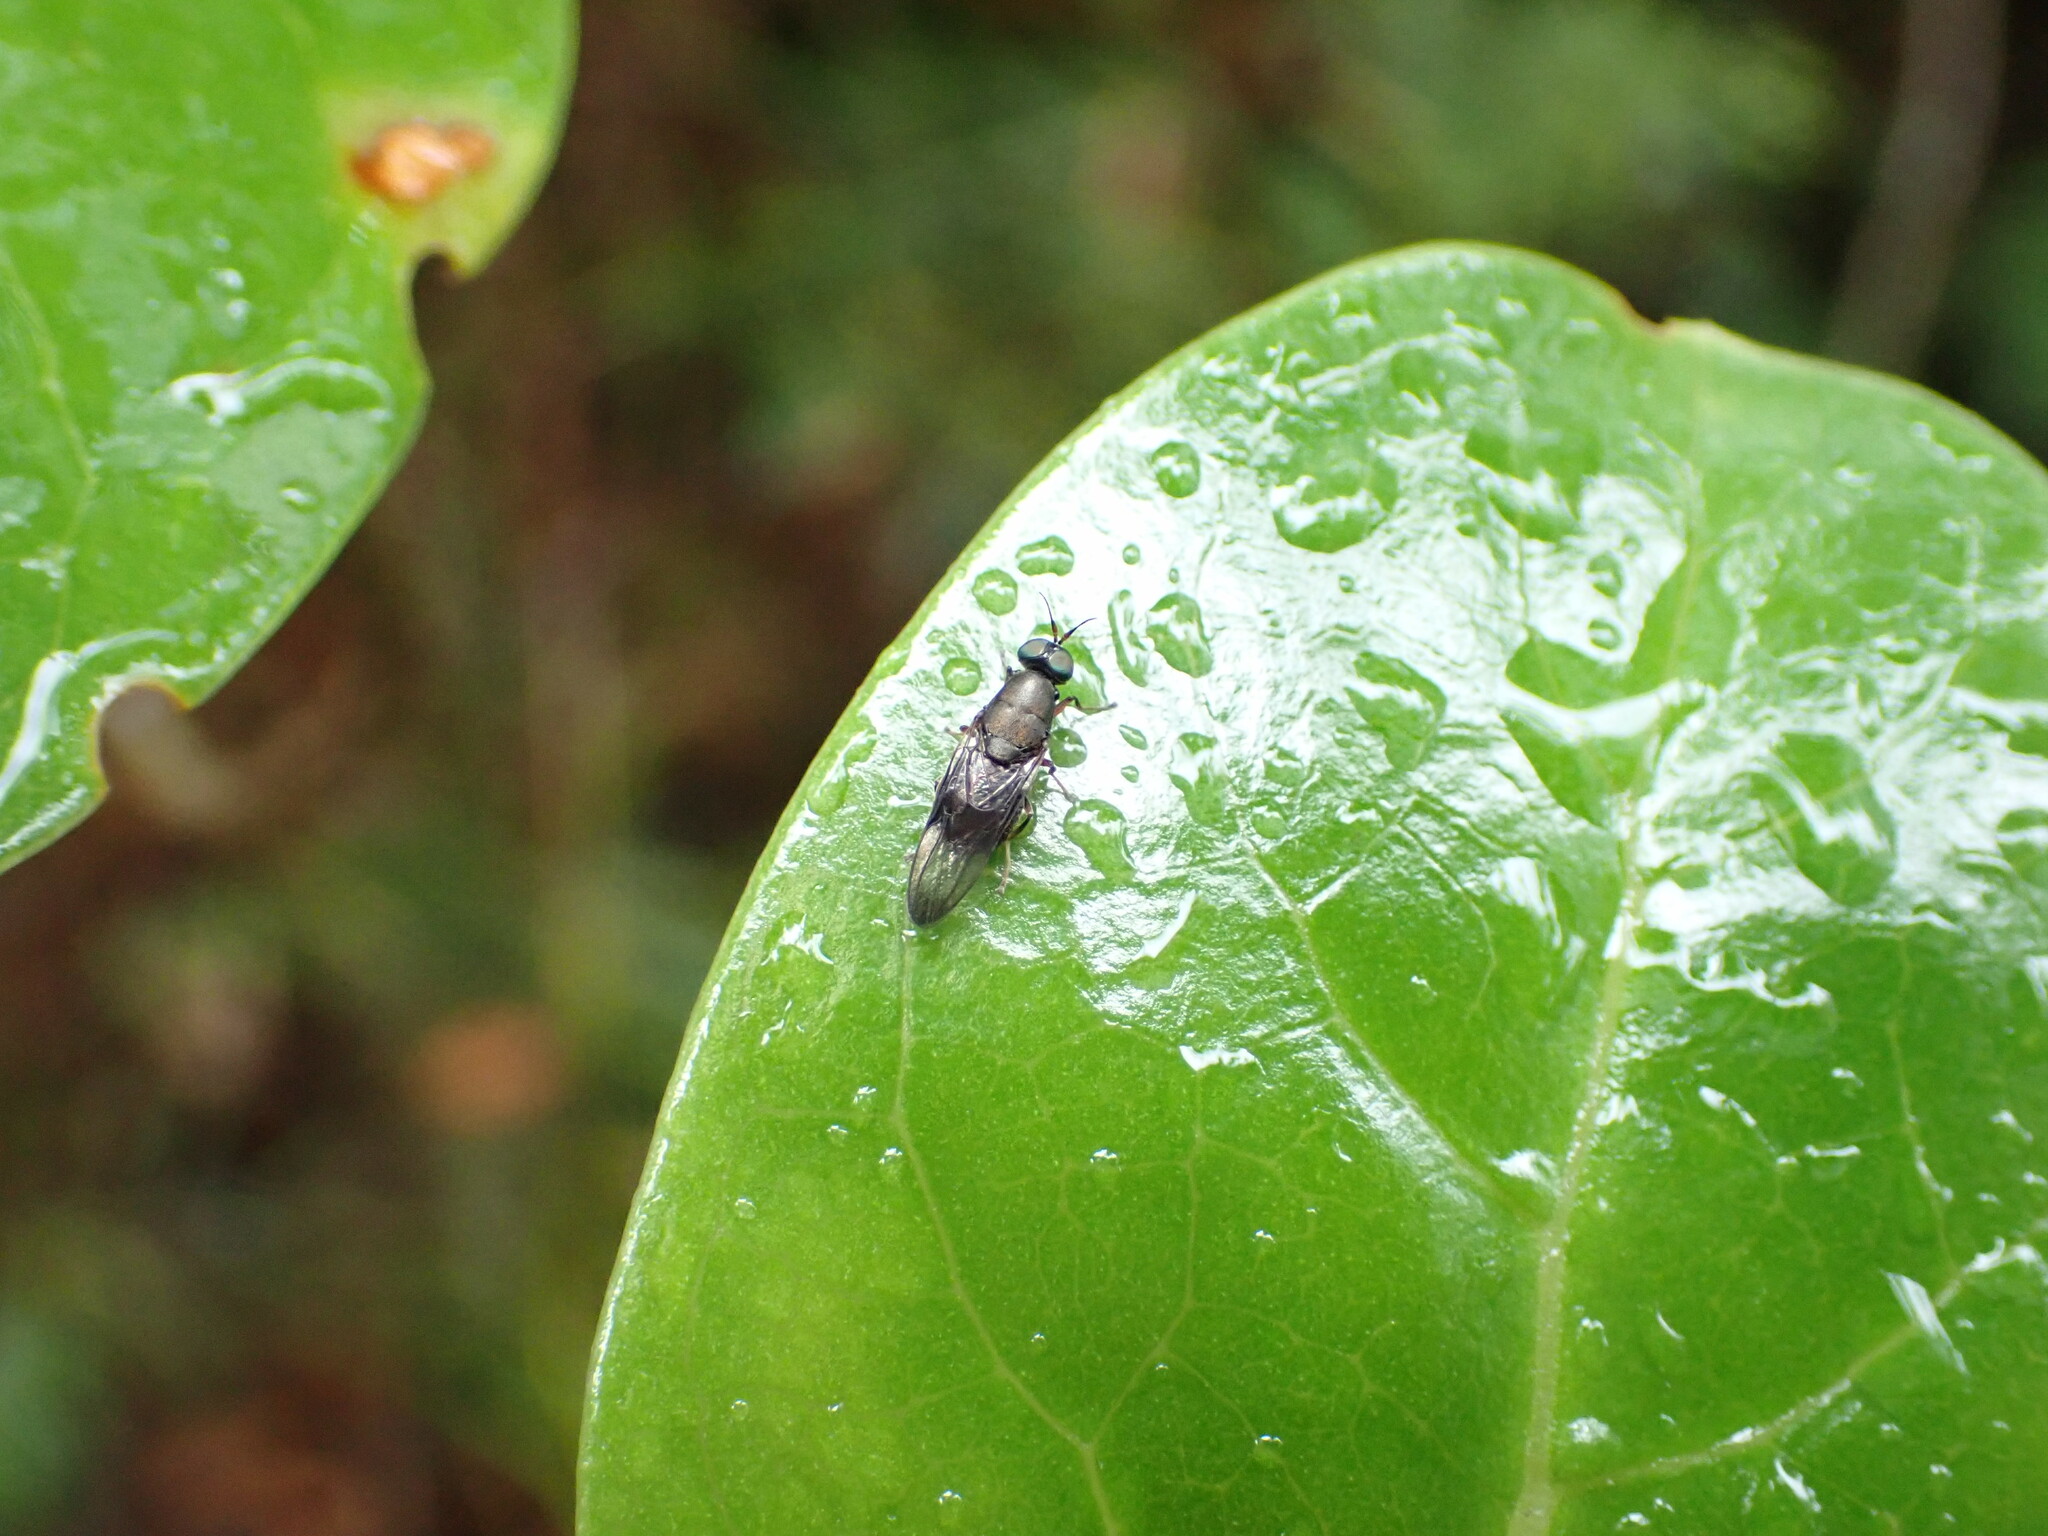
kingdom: Animalia
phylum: Arthropoda
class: Insecta
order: Diptera
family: Stratiomyidae
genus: Dysbiota
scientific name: Dysbiota peregrina
